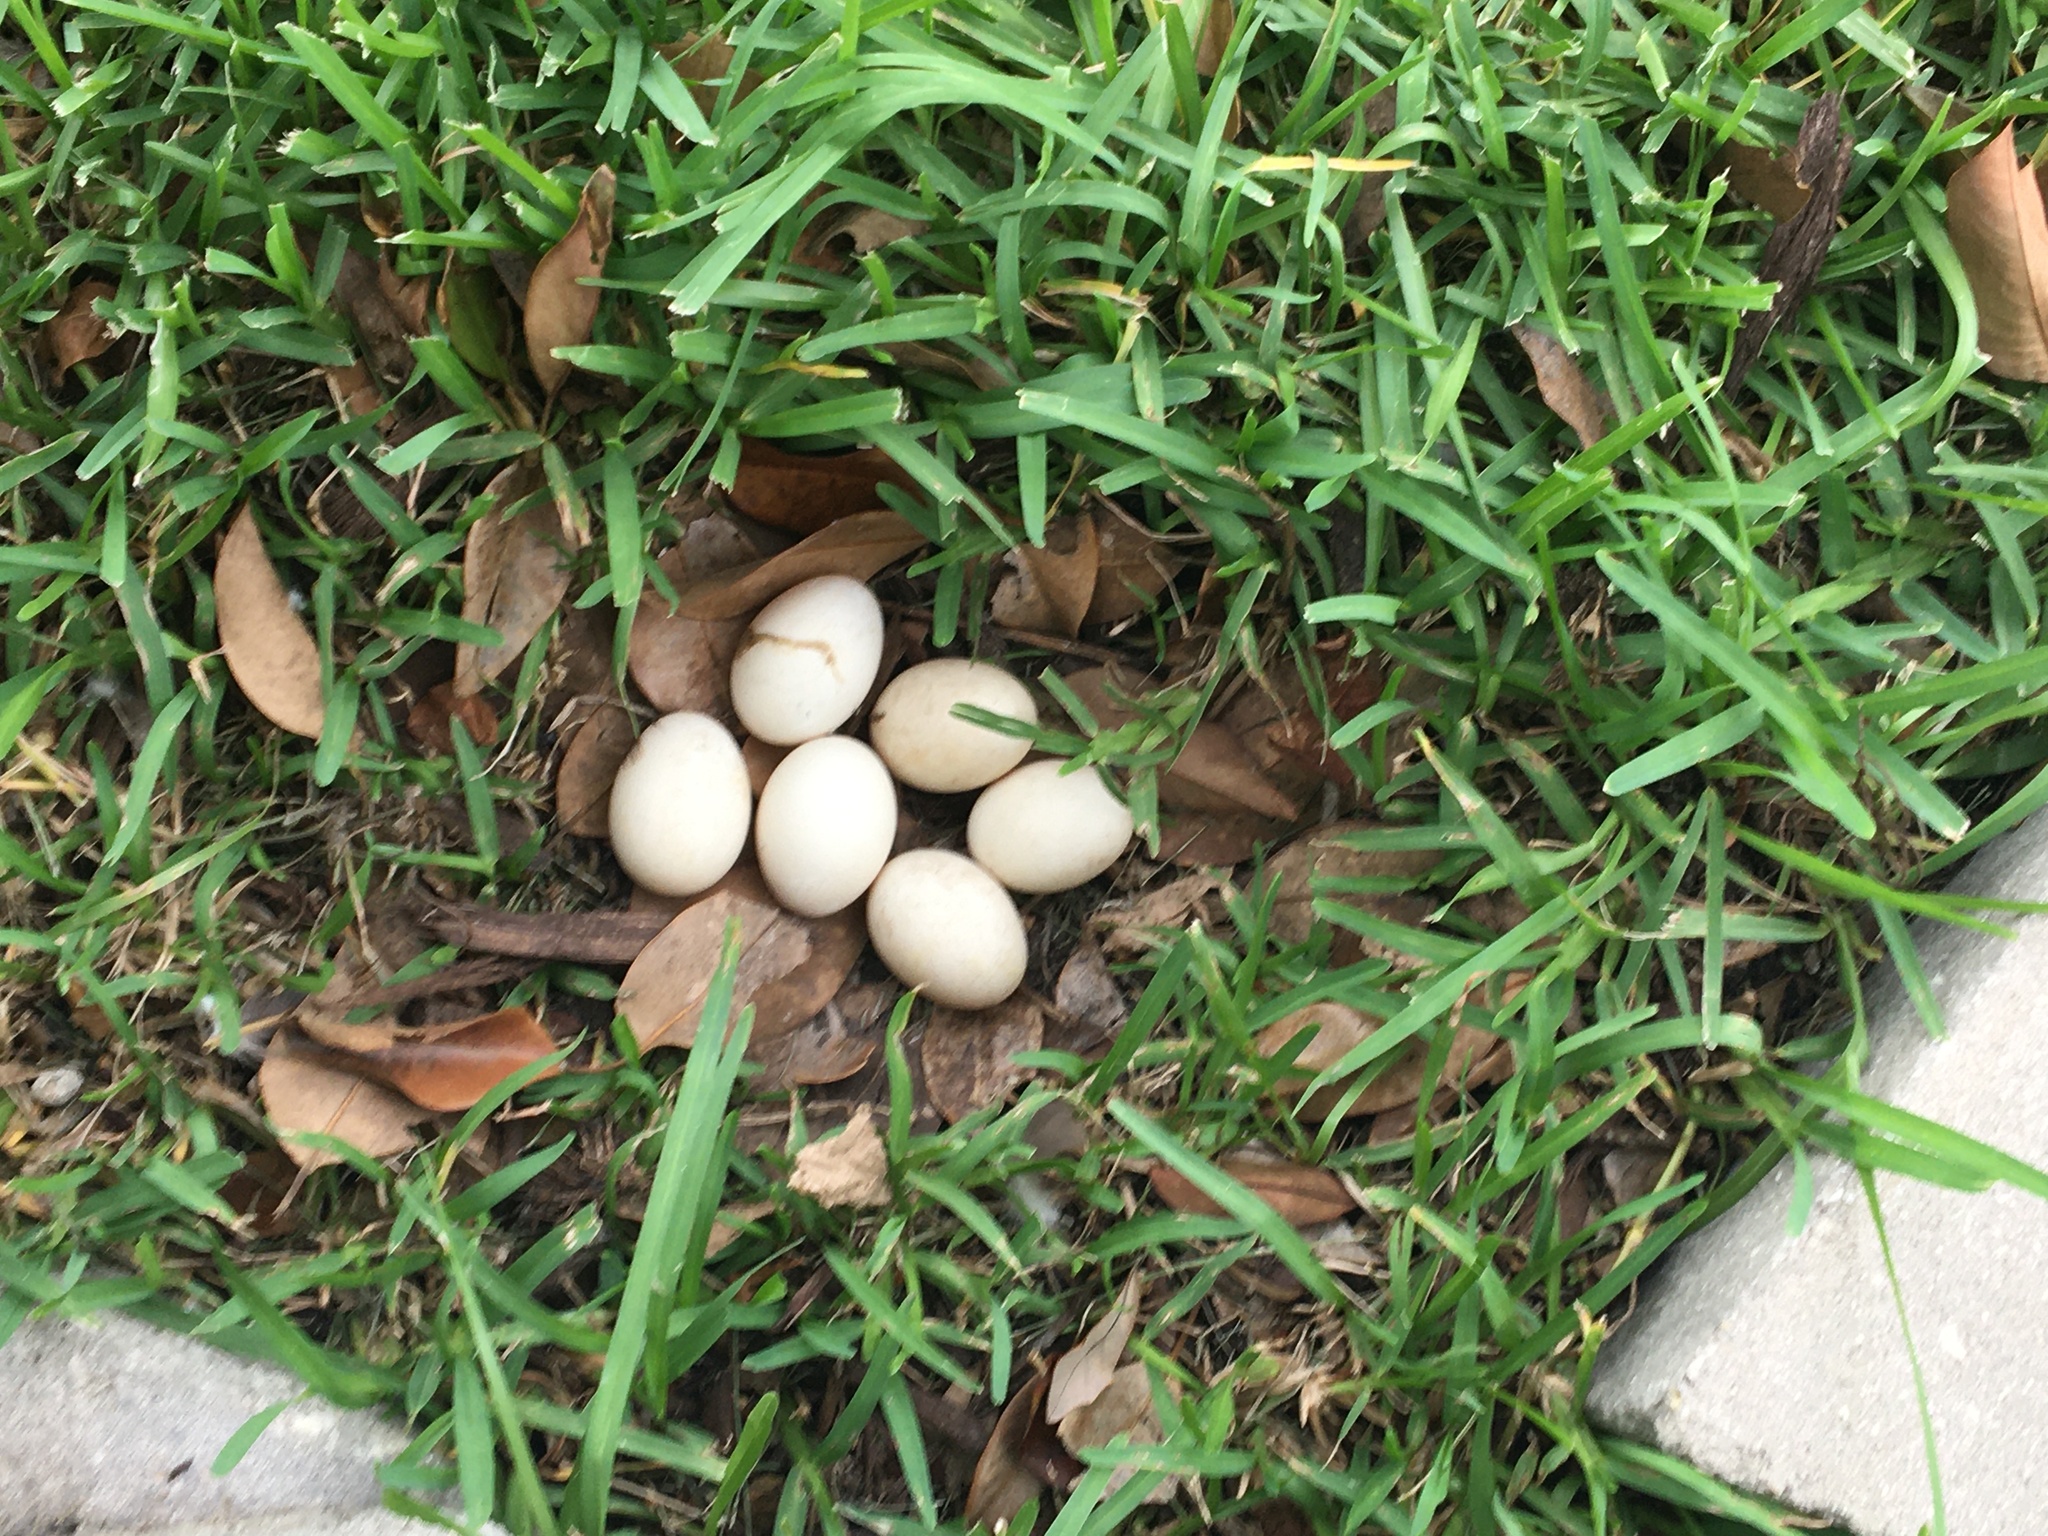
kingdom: Animalia
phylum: Chordata
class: Aves
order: Anseriformes
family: Anatidae
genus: Anas
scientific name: Anas
